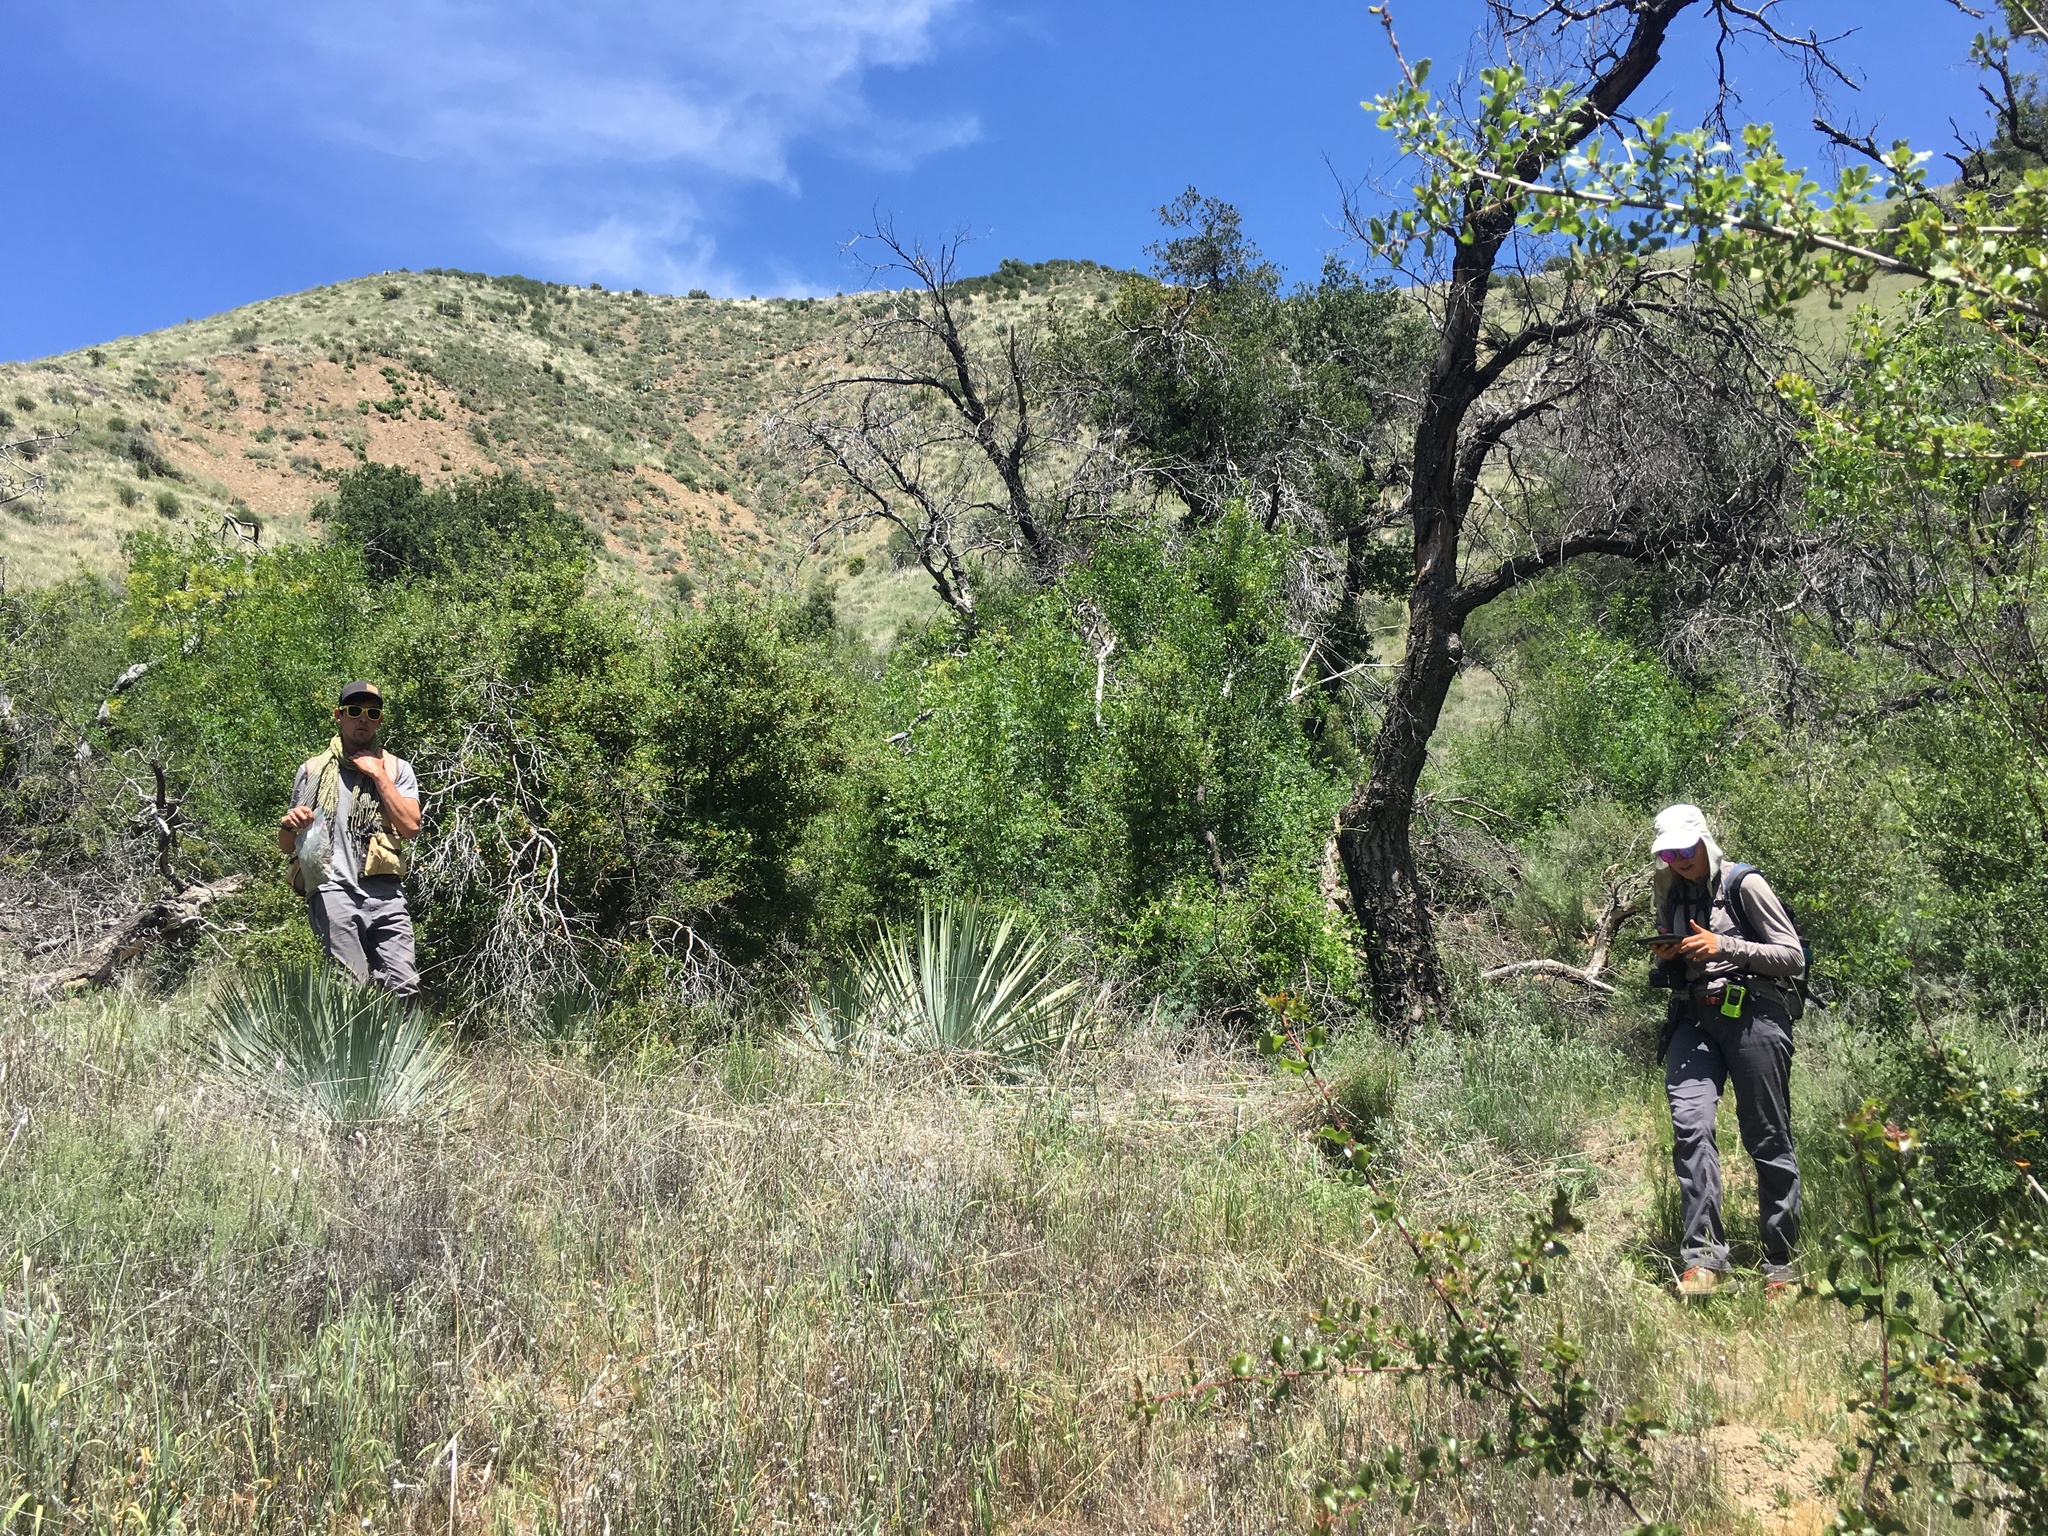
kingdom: Plantae
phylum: Tracheophyta
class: Liliopsida
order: Asparagales
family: Asparagaceae
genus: Hesperoyucca
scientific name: Hesperoyucca whipplei
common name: Our lord's-candle
